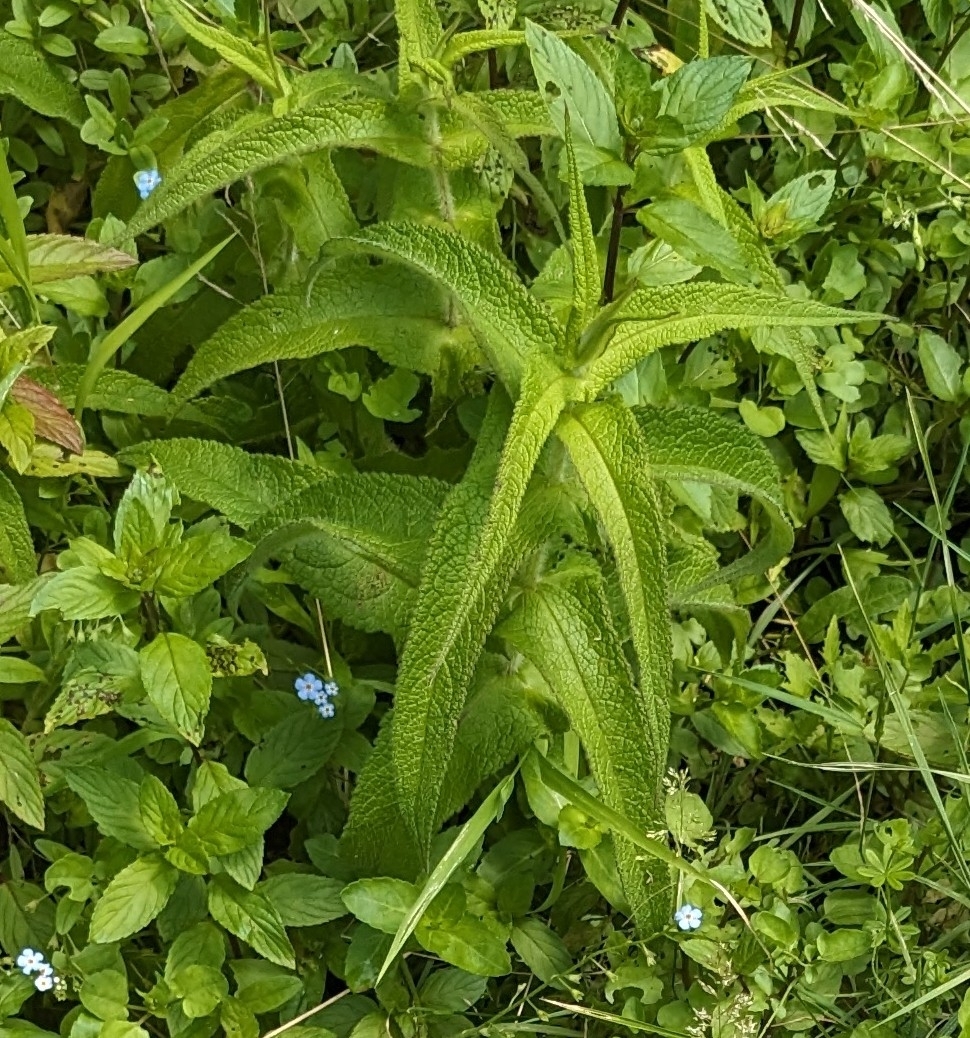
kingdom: Plantae
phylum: Tracheophyta
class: Magnoliopsida
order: Asterales
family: Asteraceae
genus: Eupatorium
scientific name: Eupatorium perfoliatum
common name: Boneset
